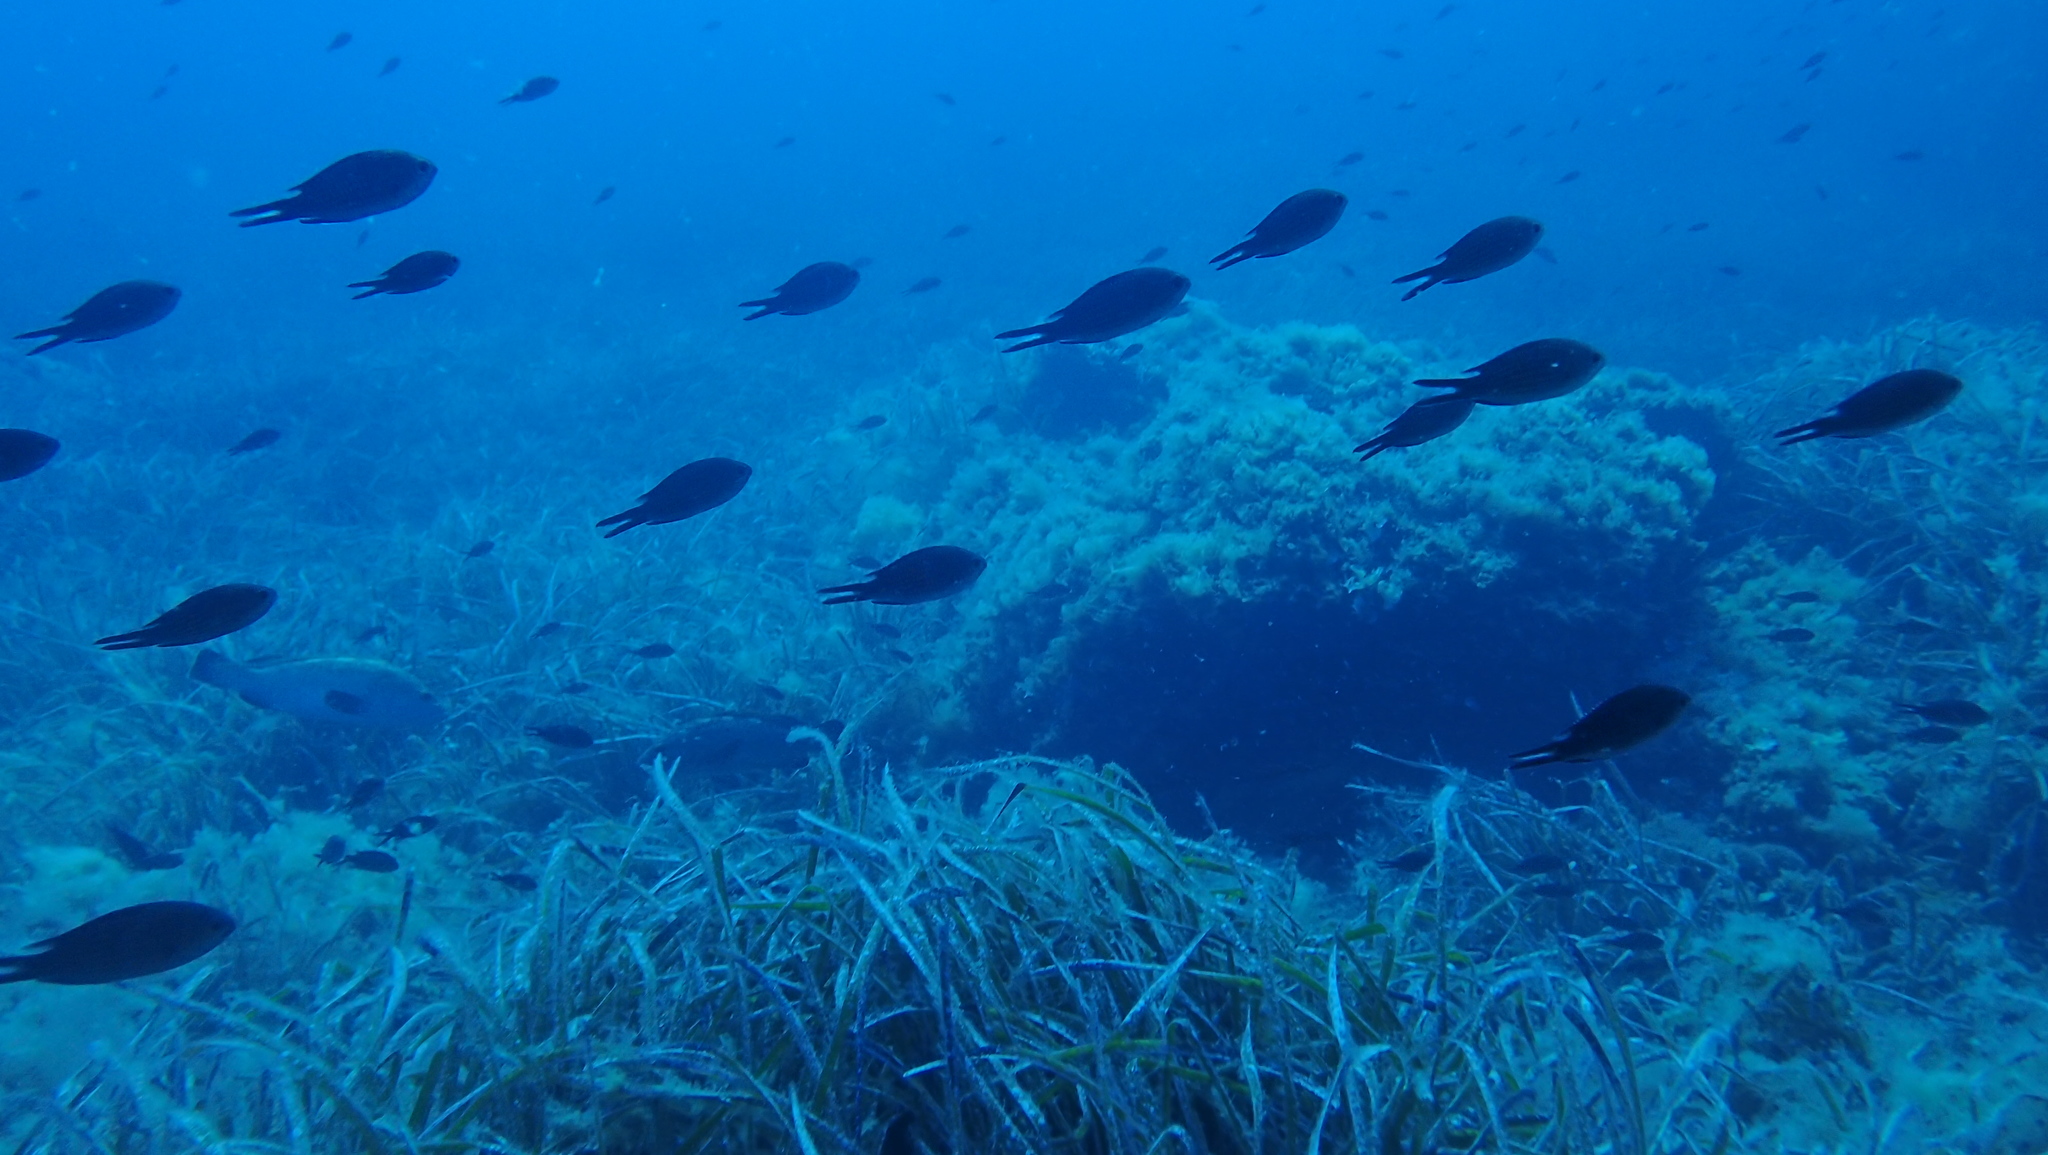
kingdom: Animalia
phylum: Chordata
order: Perciformes
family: Pomacentridae
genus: Chromis
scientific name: Chromis chromis
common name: Damselfish
